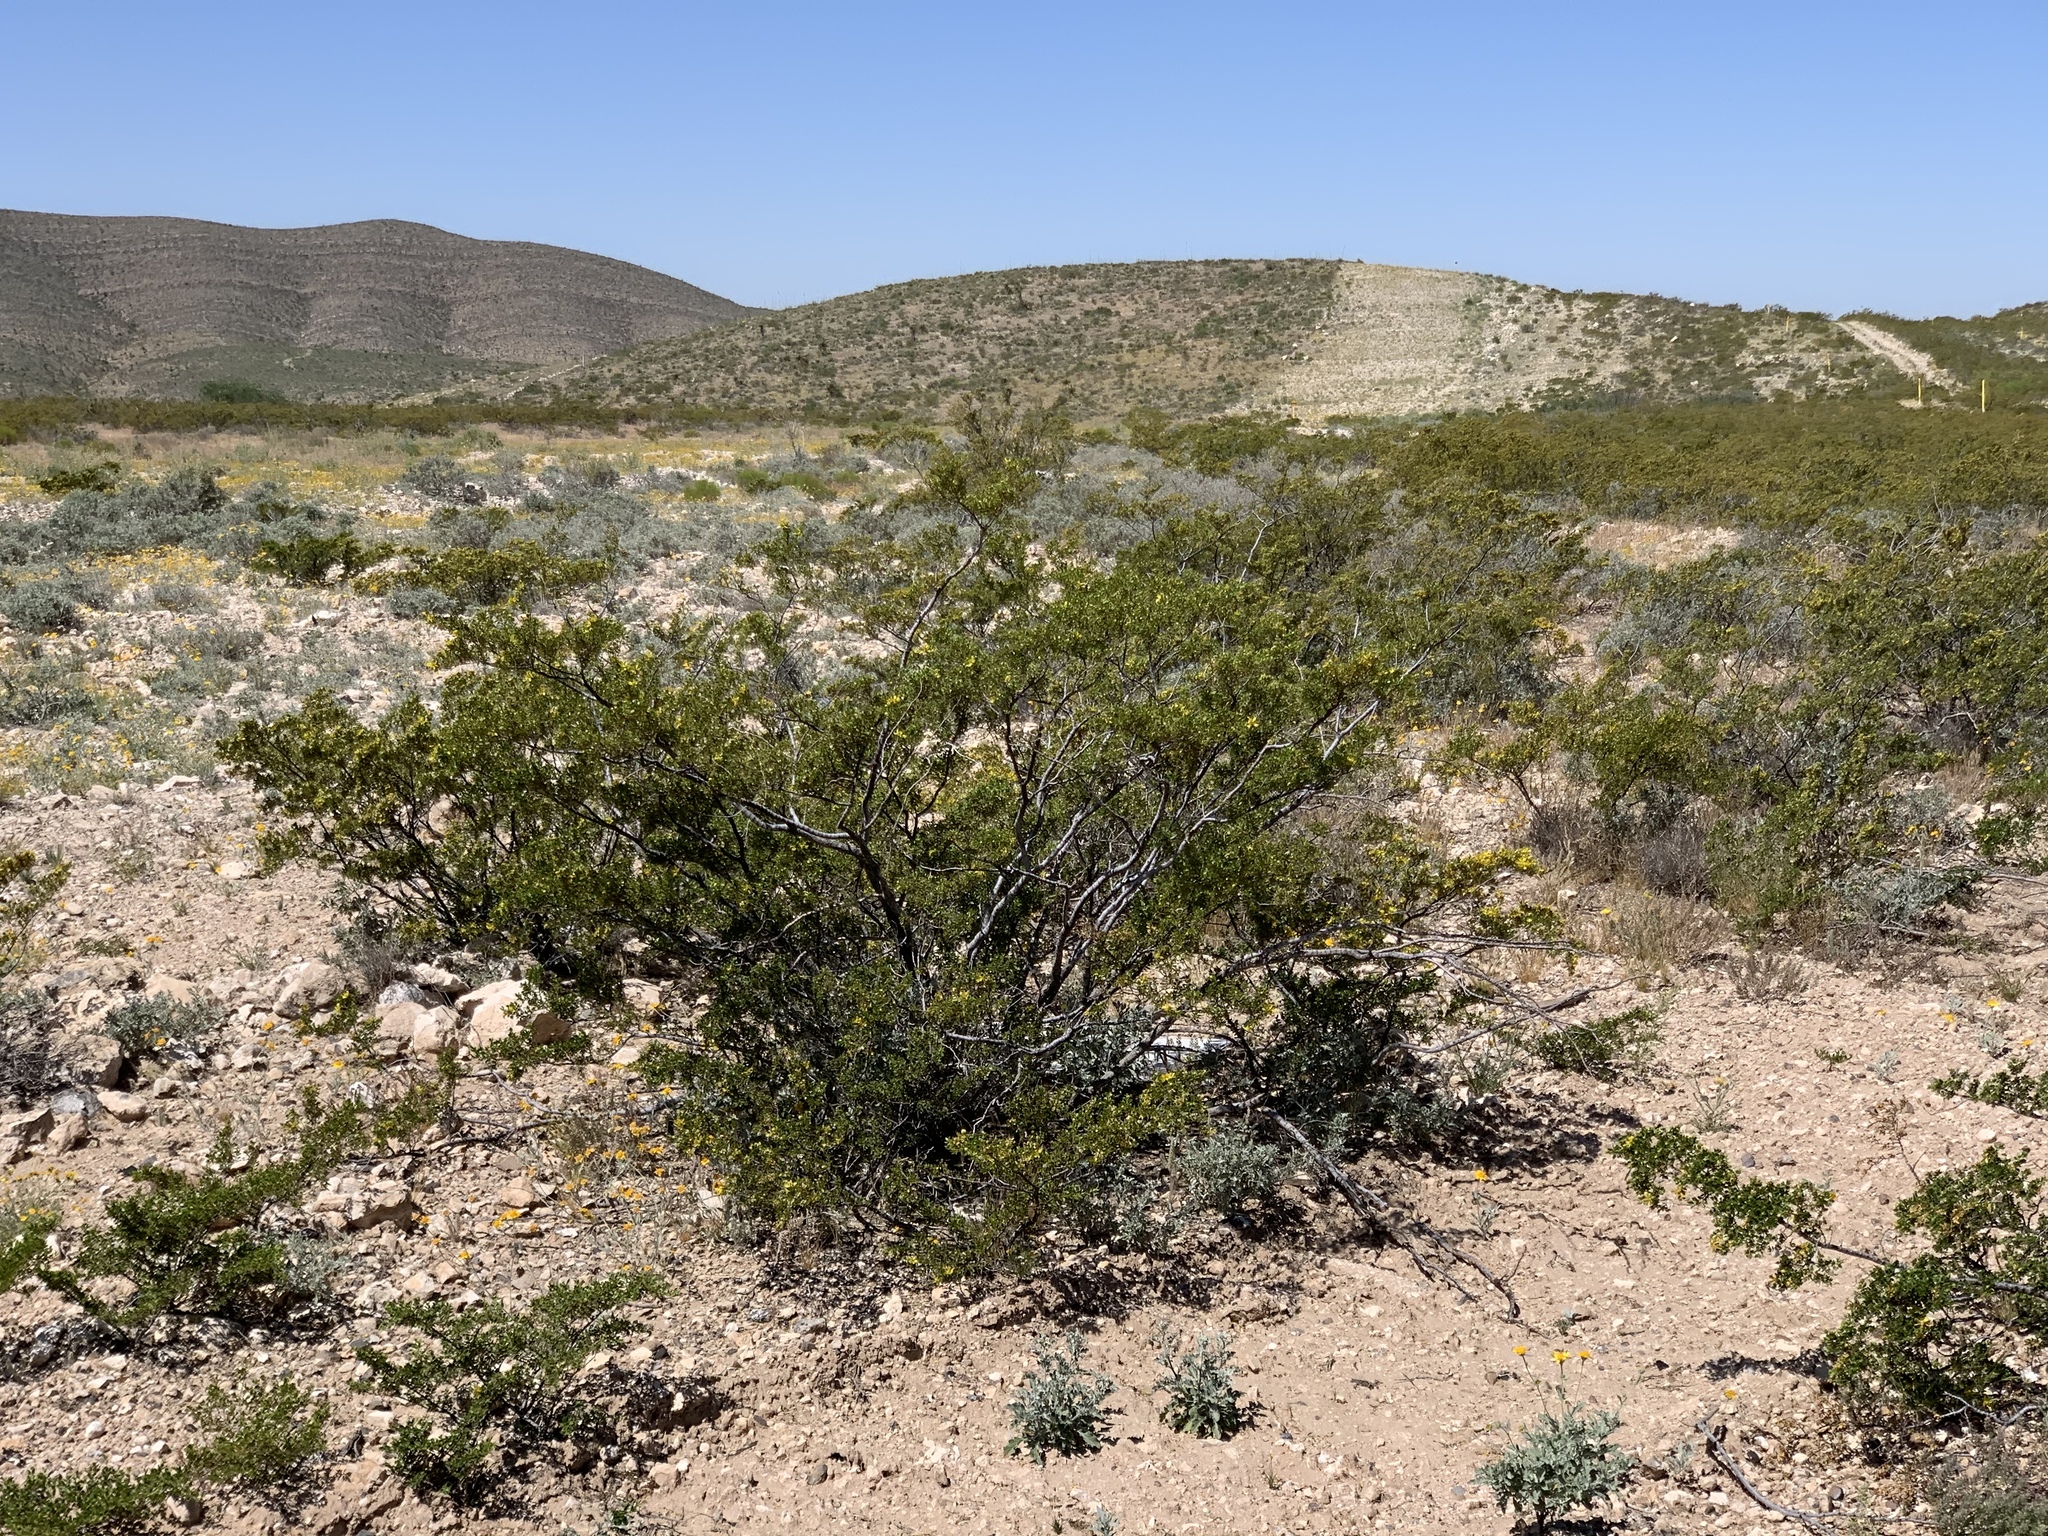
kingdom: Plantae
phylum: Tracheophyta
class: Magnoliopsida
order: Zygophyllales
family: Zygophyllaceae
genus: Larrea
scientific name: Larrea tridentata
